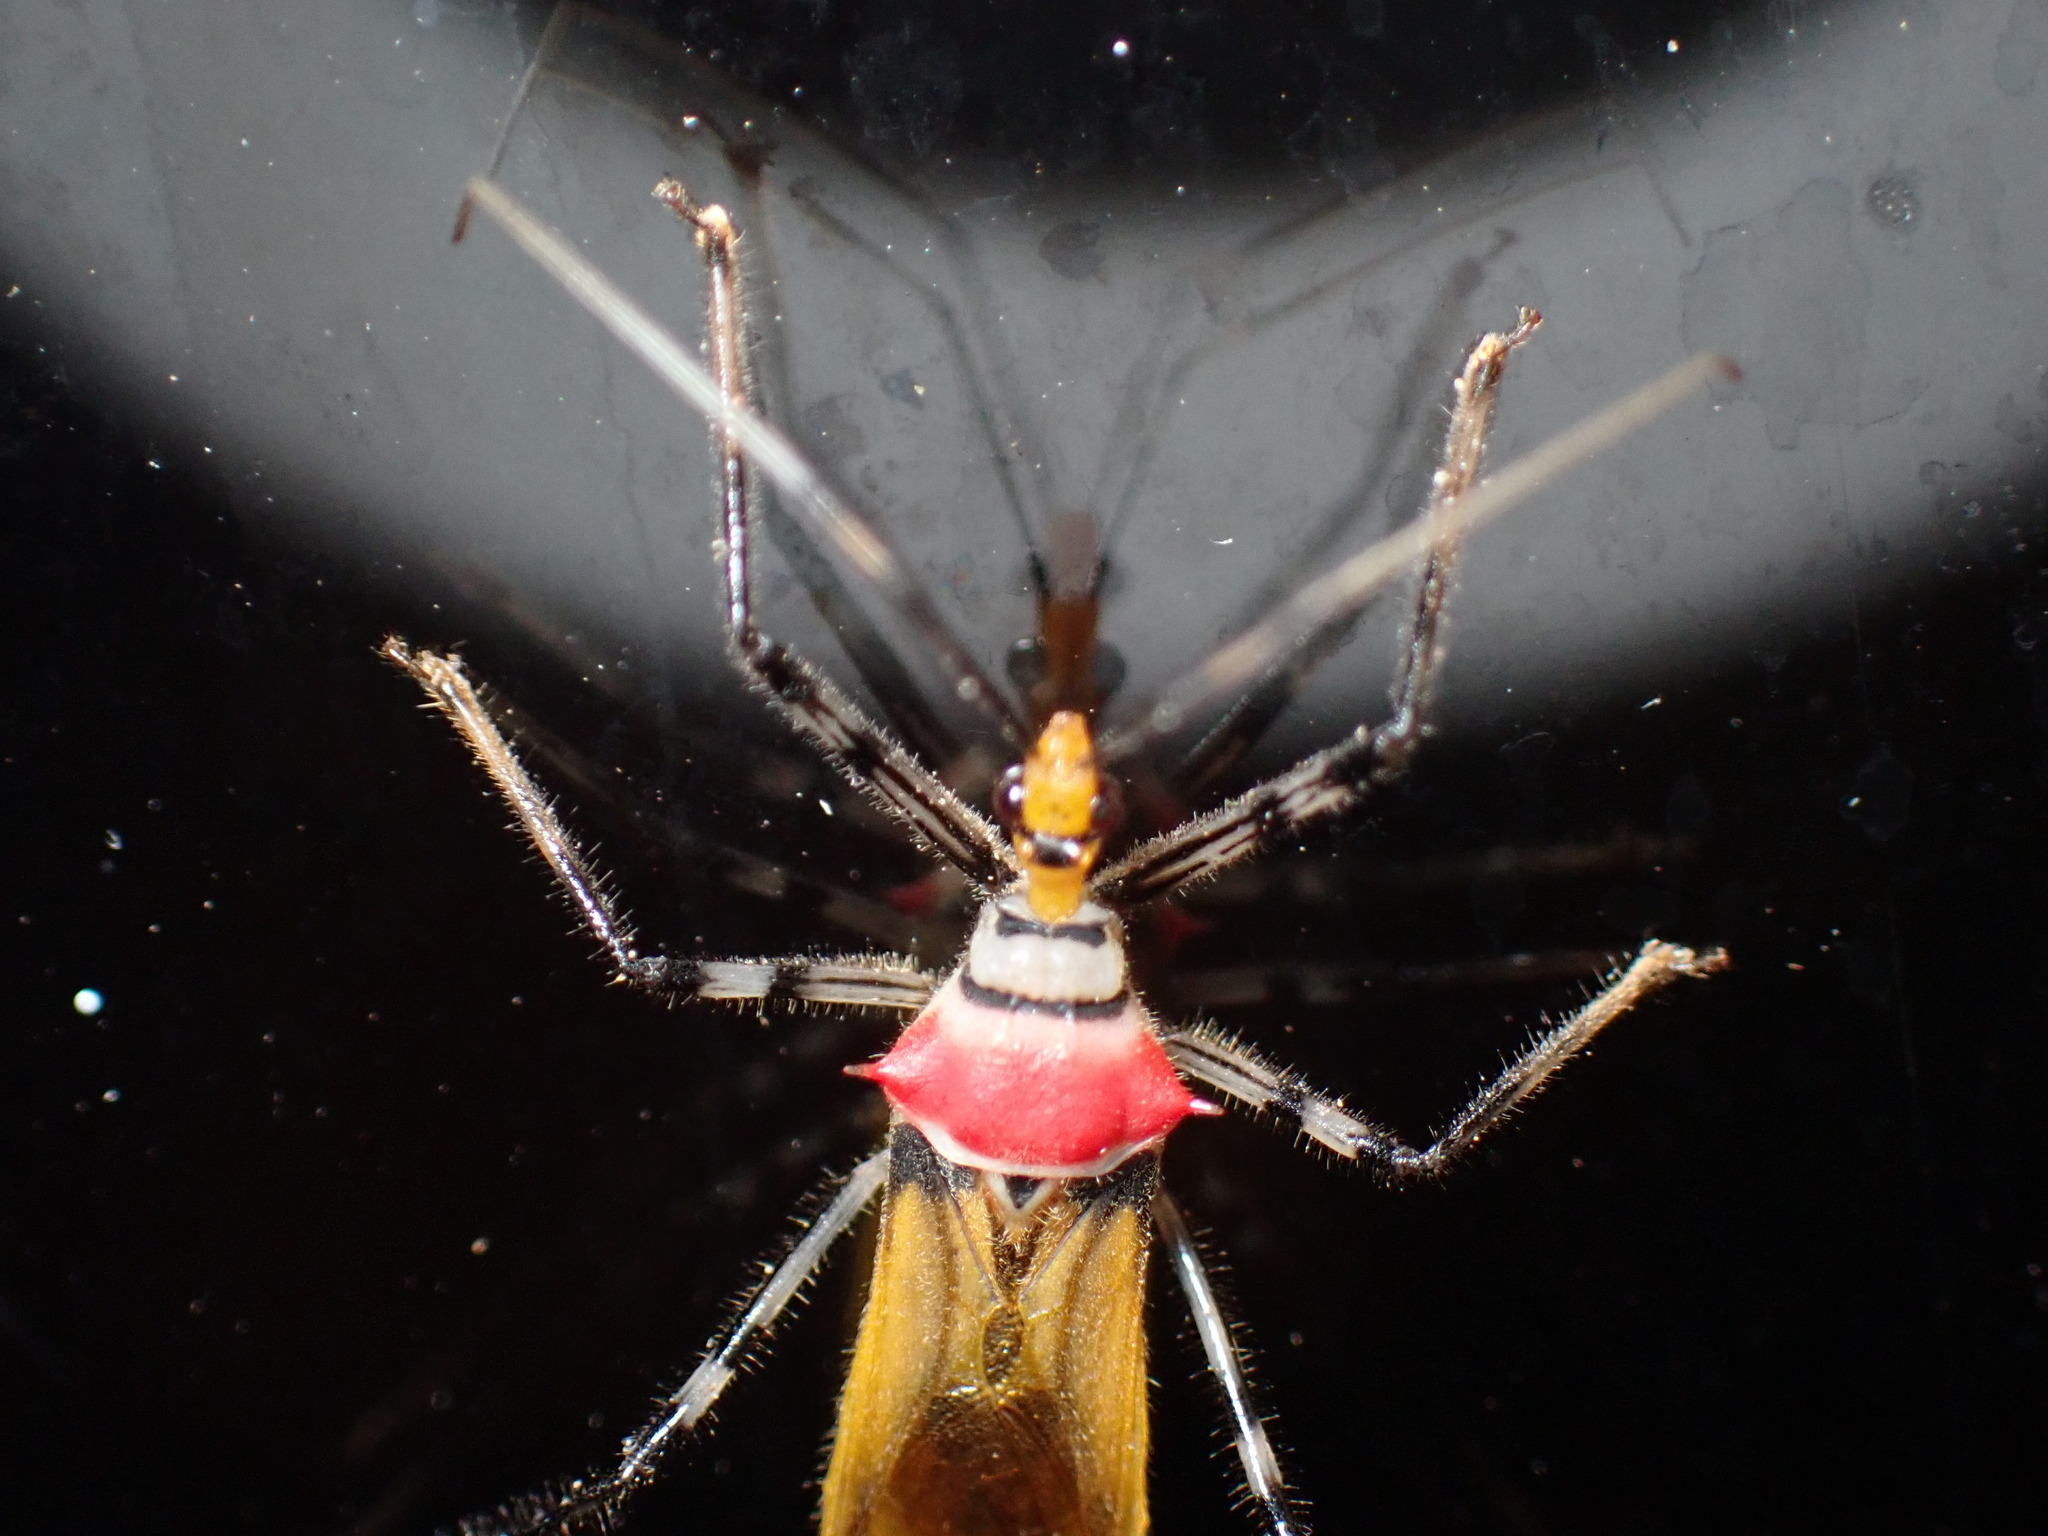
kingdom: Animalia
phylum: Arthropoda
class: Insecta
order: Hemiptera
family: Reduviidae
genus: Castolus
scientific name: Castolus lineatus
